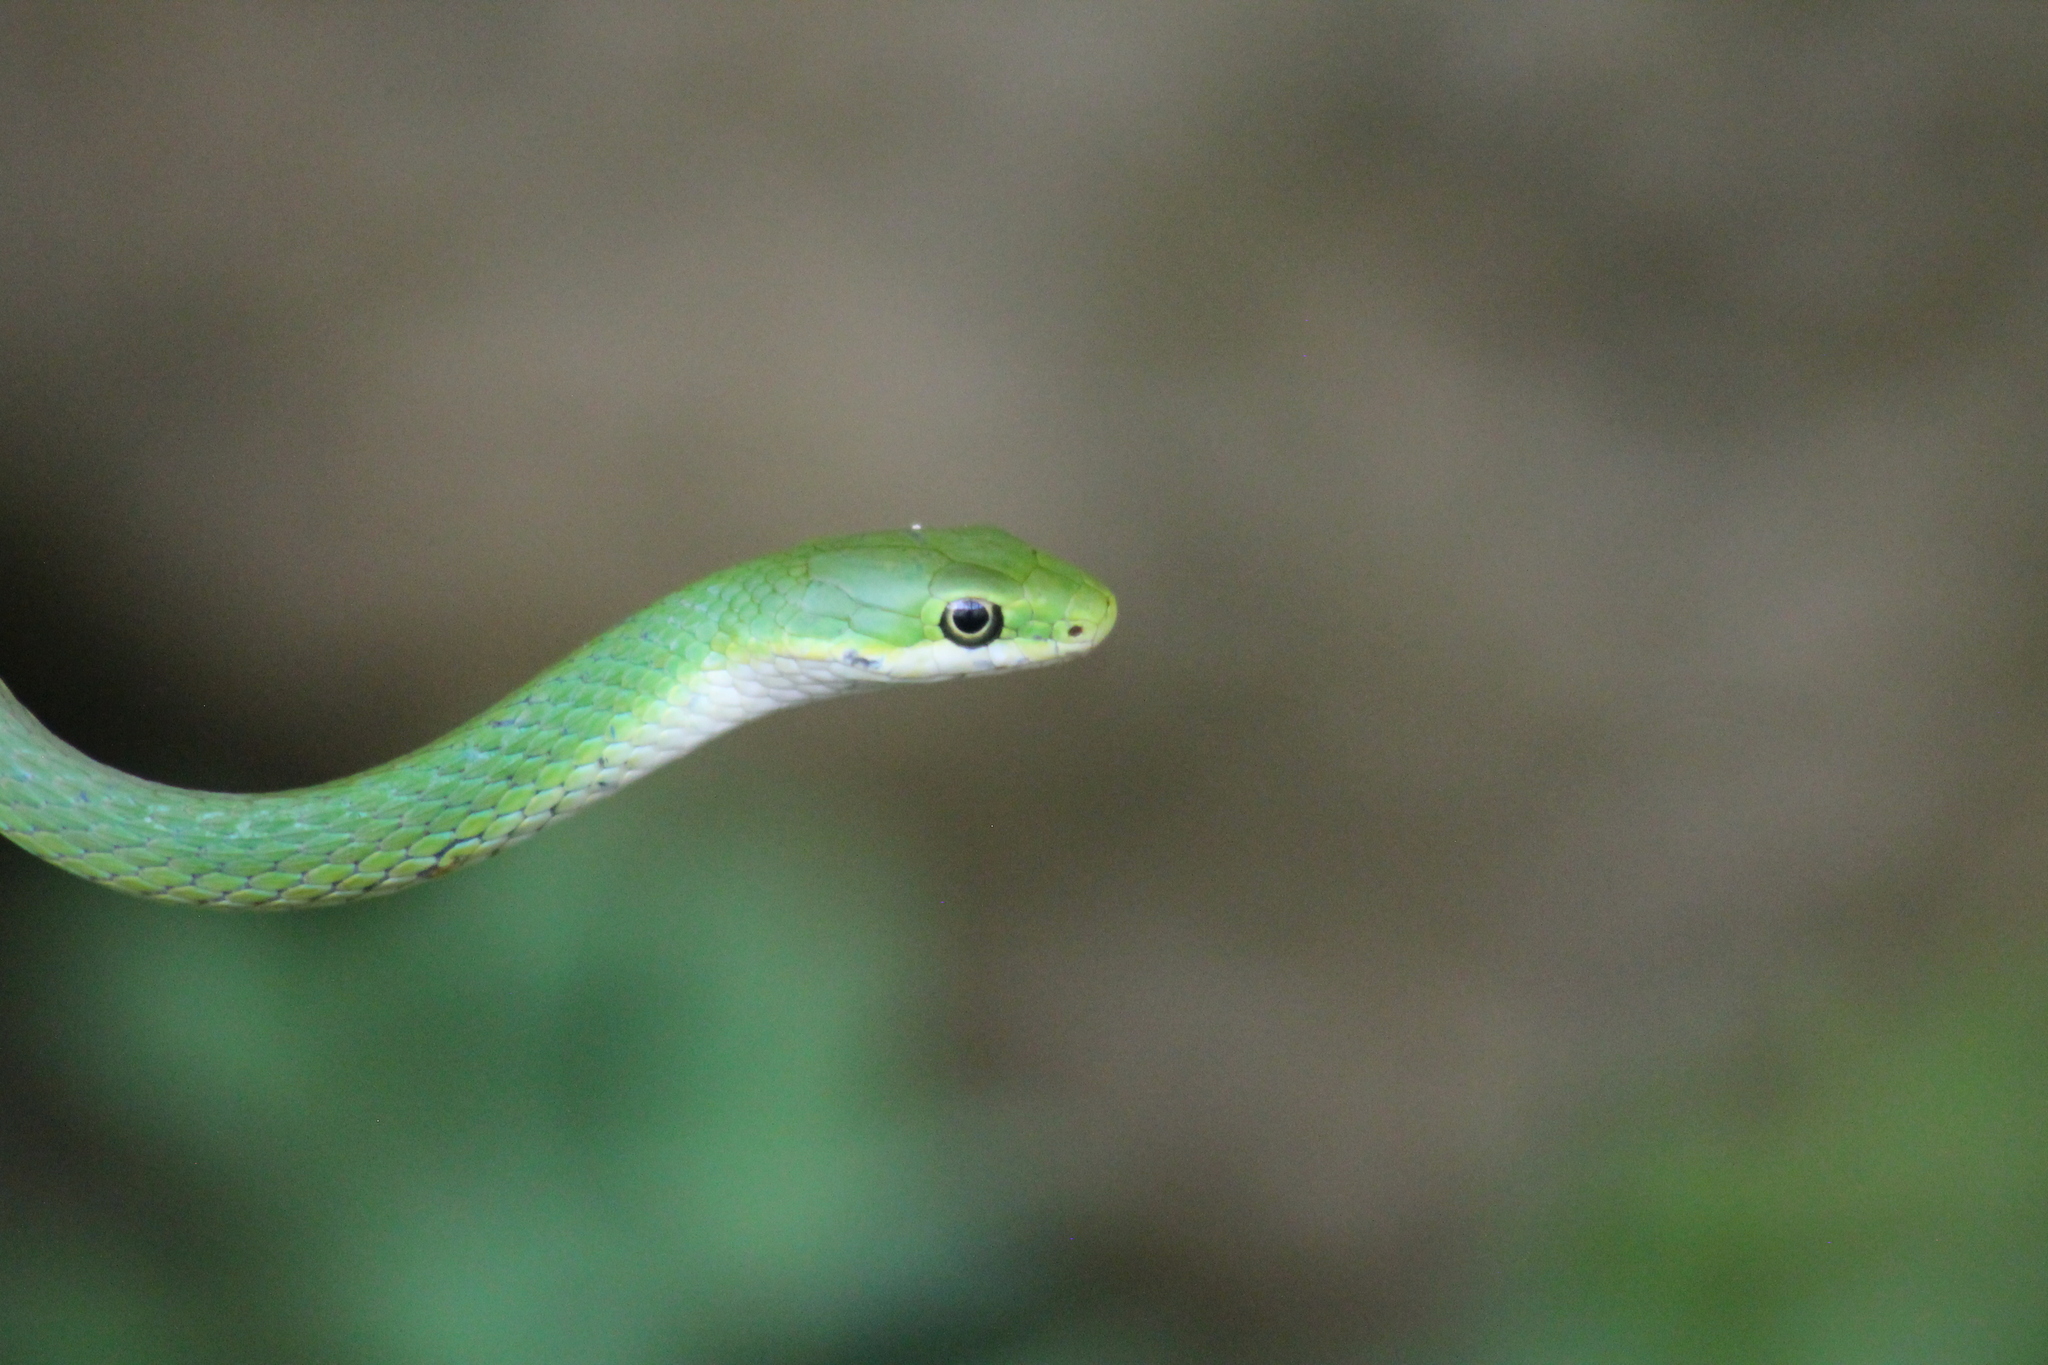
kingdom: Animalia
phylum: Chordata
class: Squamata
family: Colubridae
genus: Opheodrys
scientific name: Opheodrys aestivus
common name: Rough greensnake
